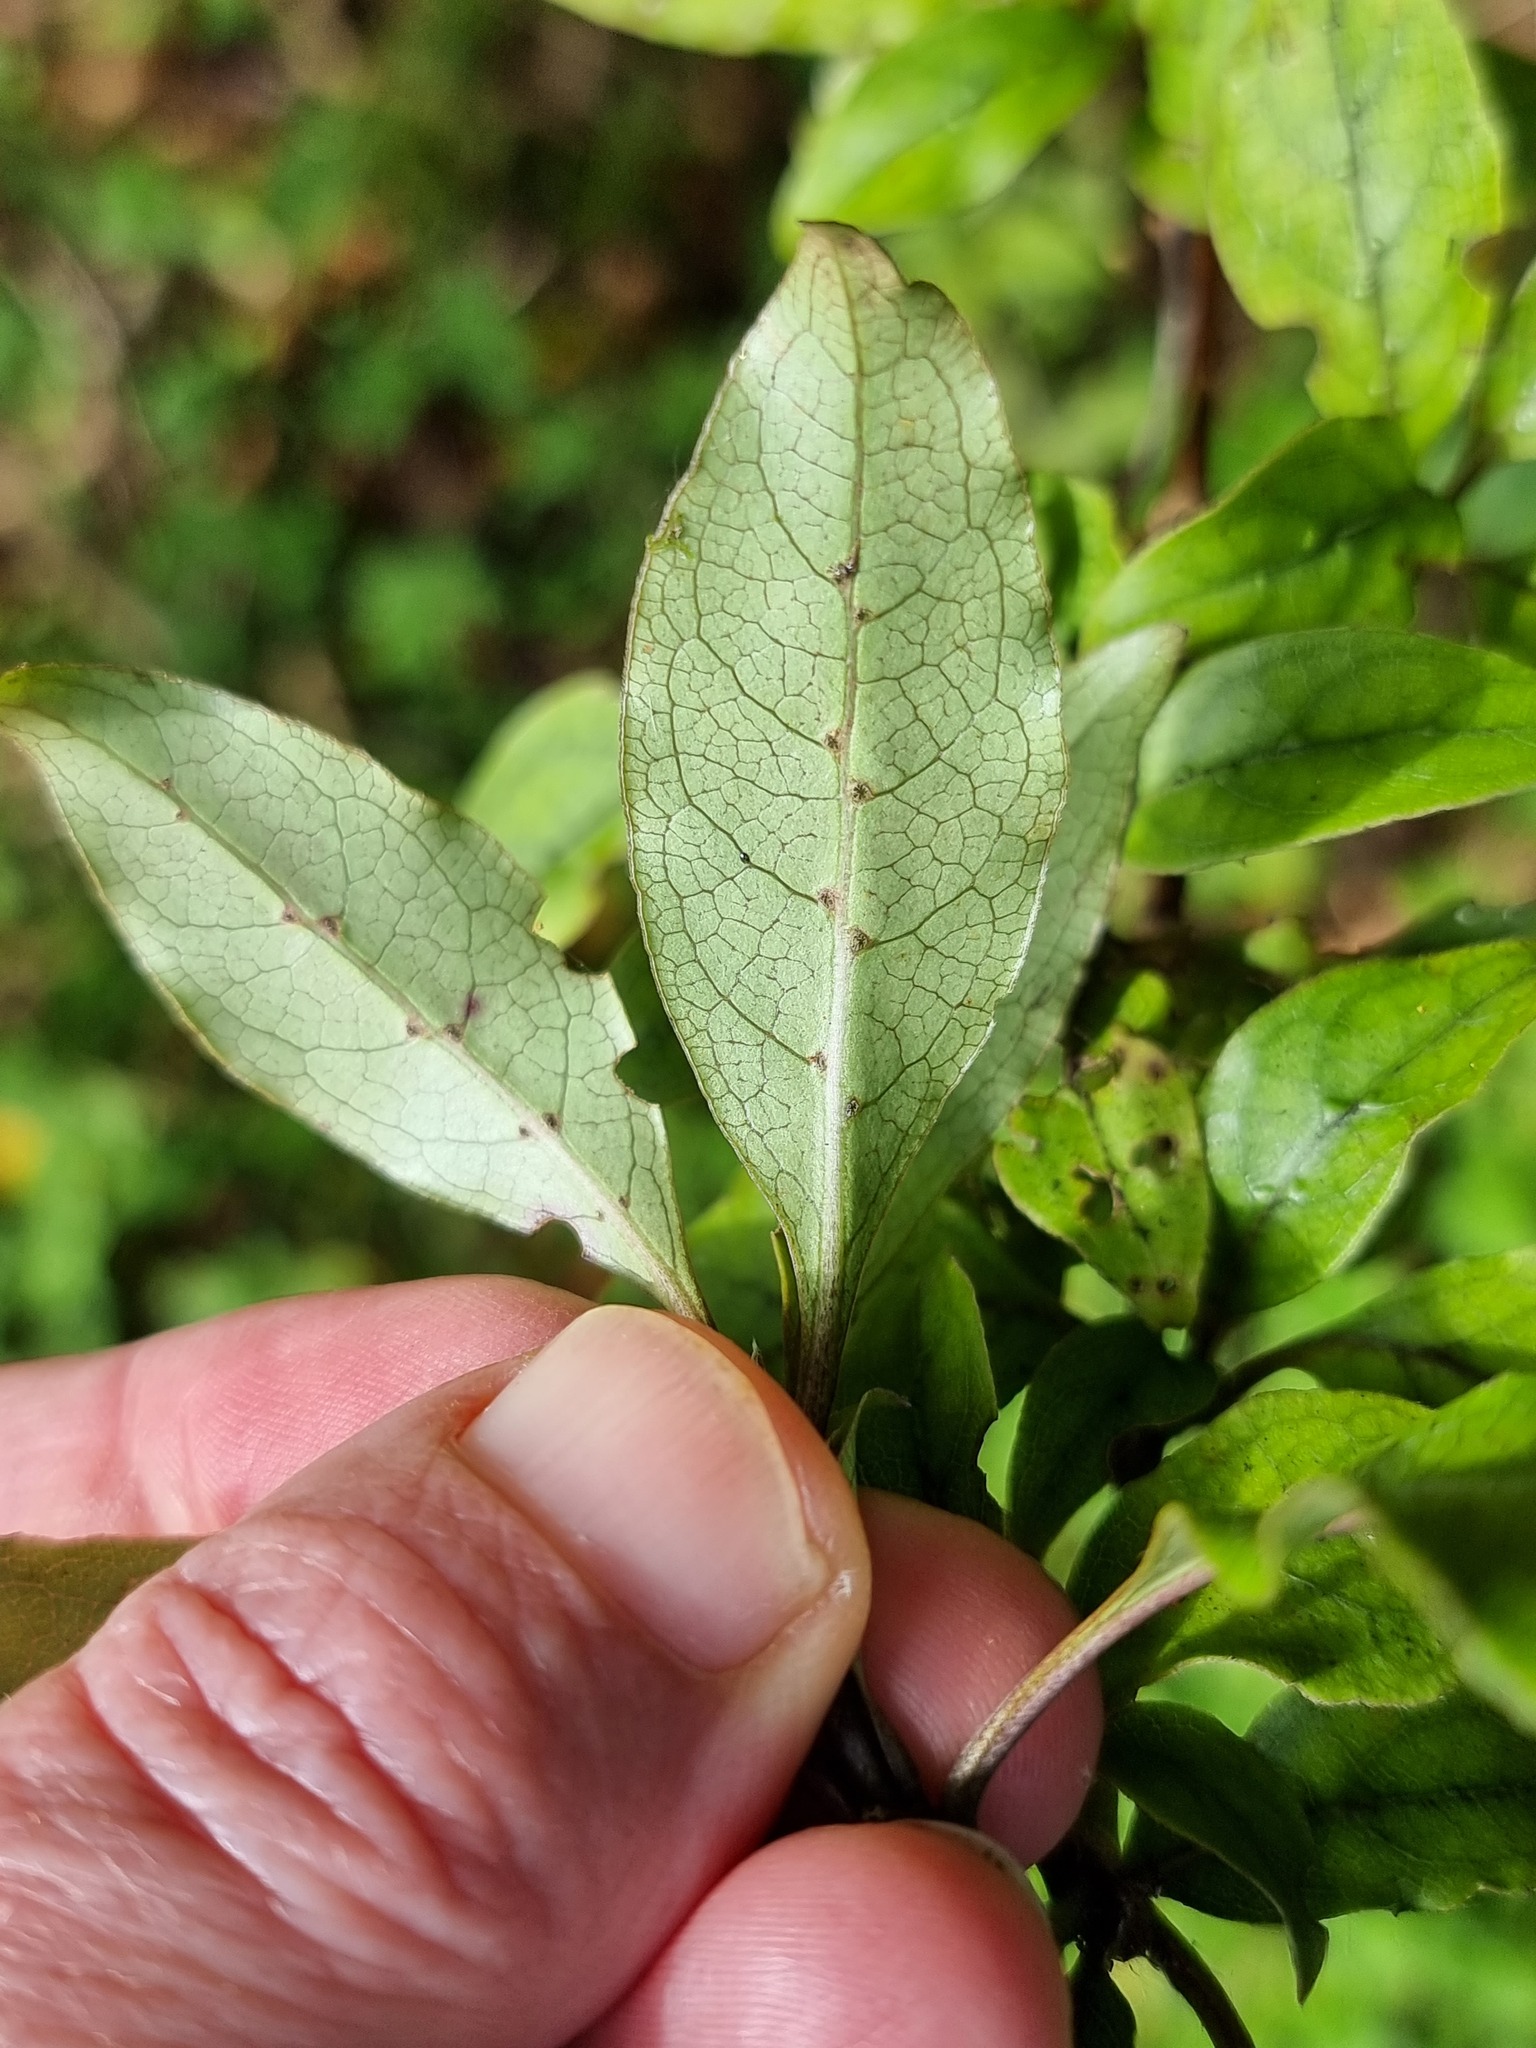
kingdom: Plantae
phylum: Tracheophyta
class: Magnoliopsida
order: Gentianales
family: Rubiaceae
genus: Coprosma
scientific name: Coprosma tenuifolia
